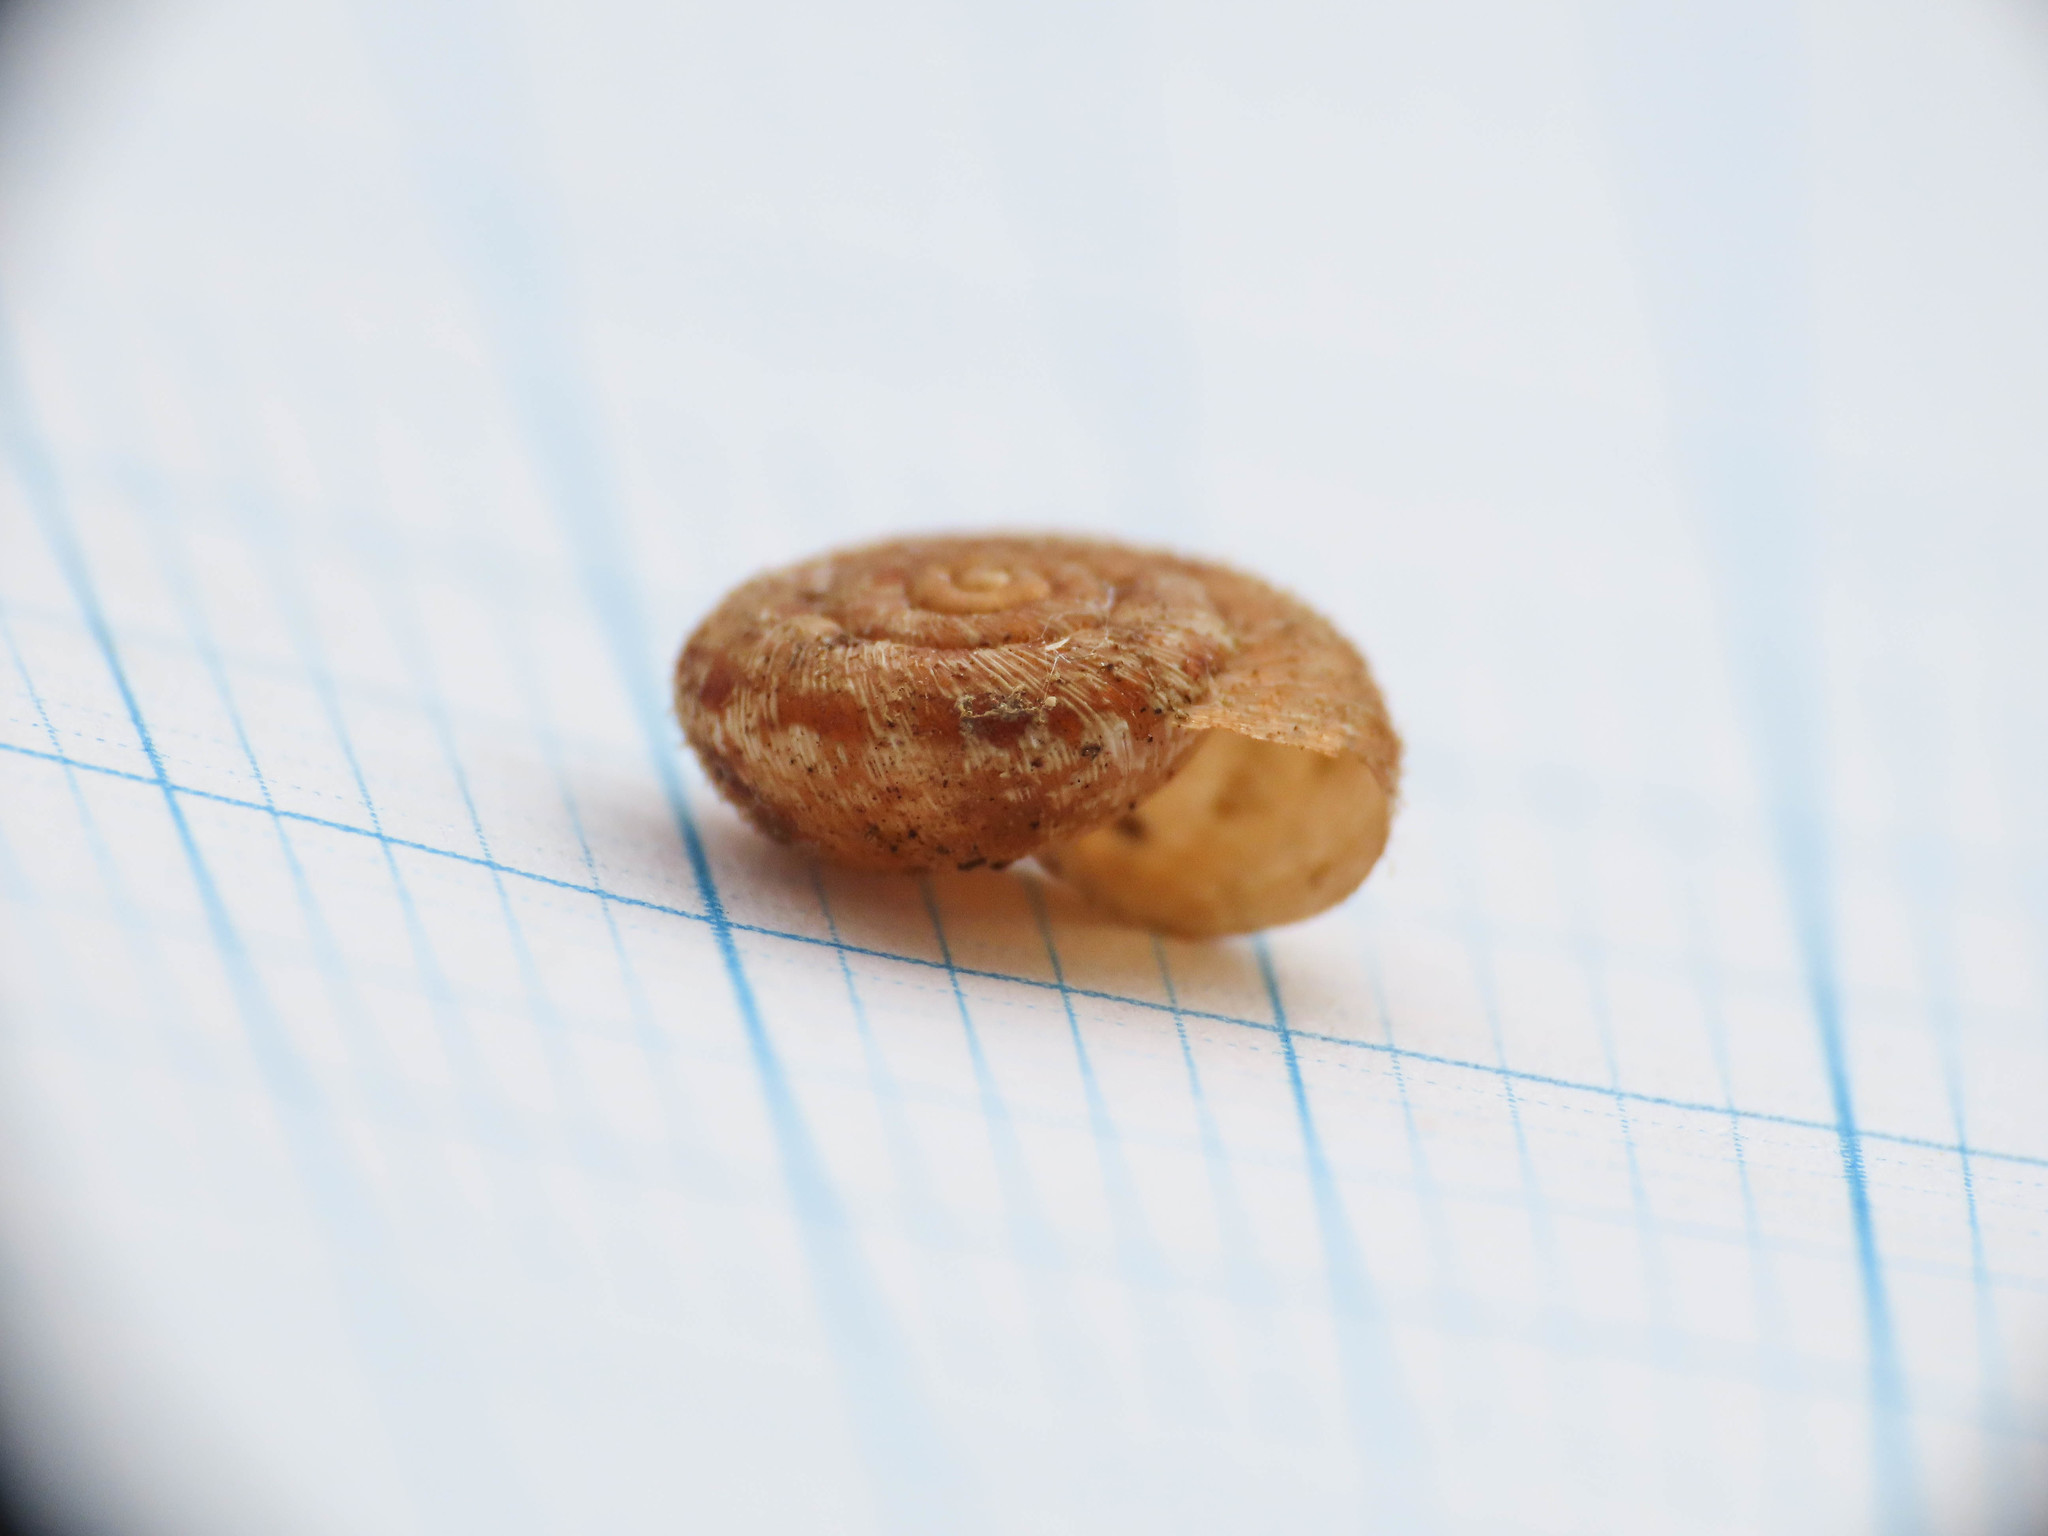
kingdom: Animalia
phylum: Mollusca
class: Gastropoda
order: Stylommatophora
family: Geomitridae
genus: Xerotricha
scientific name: Xerotricha conspurcata
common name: Snail
